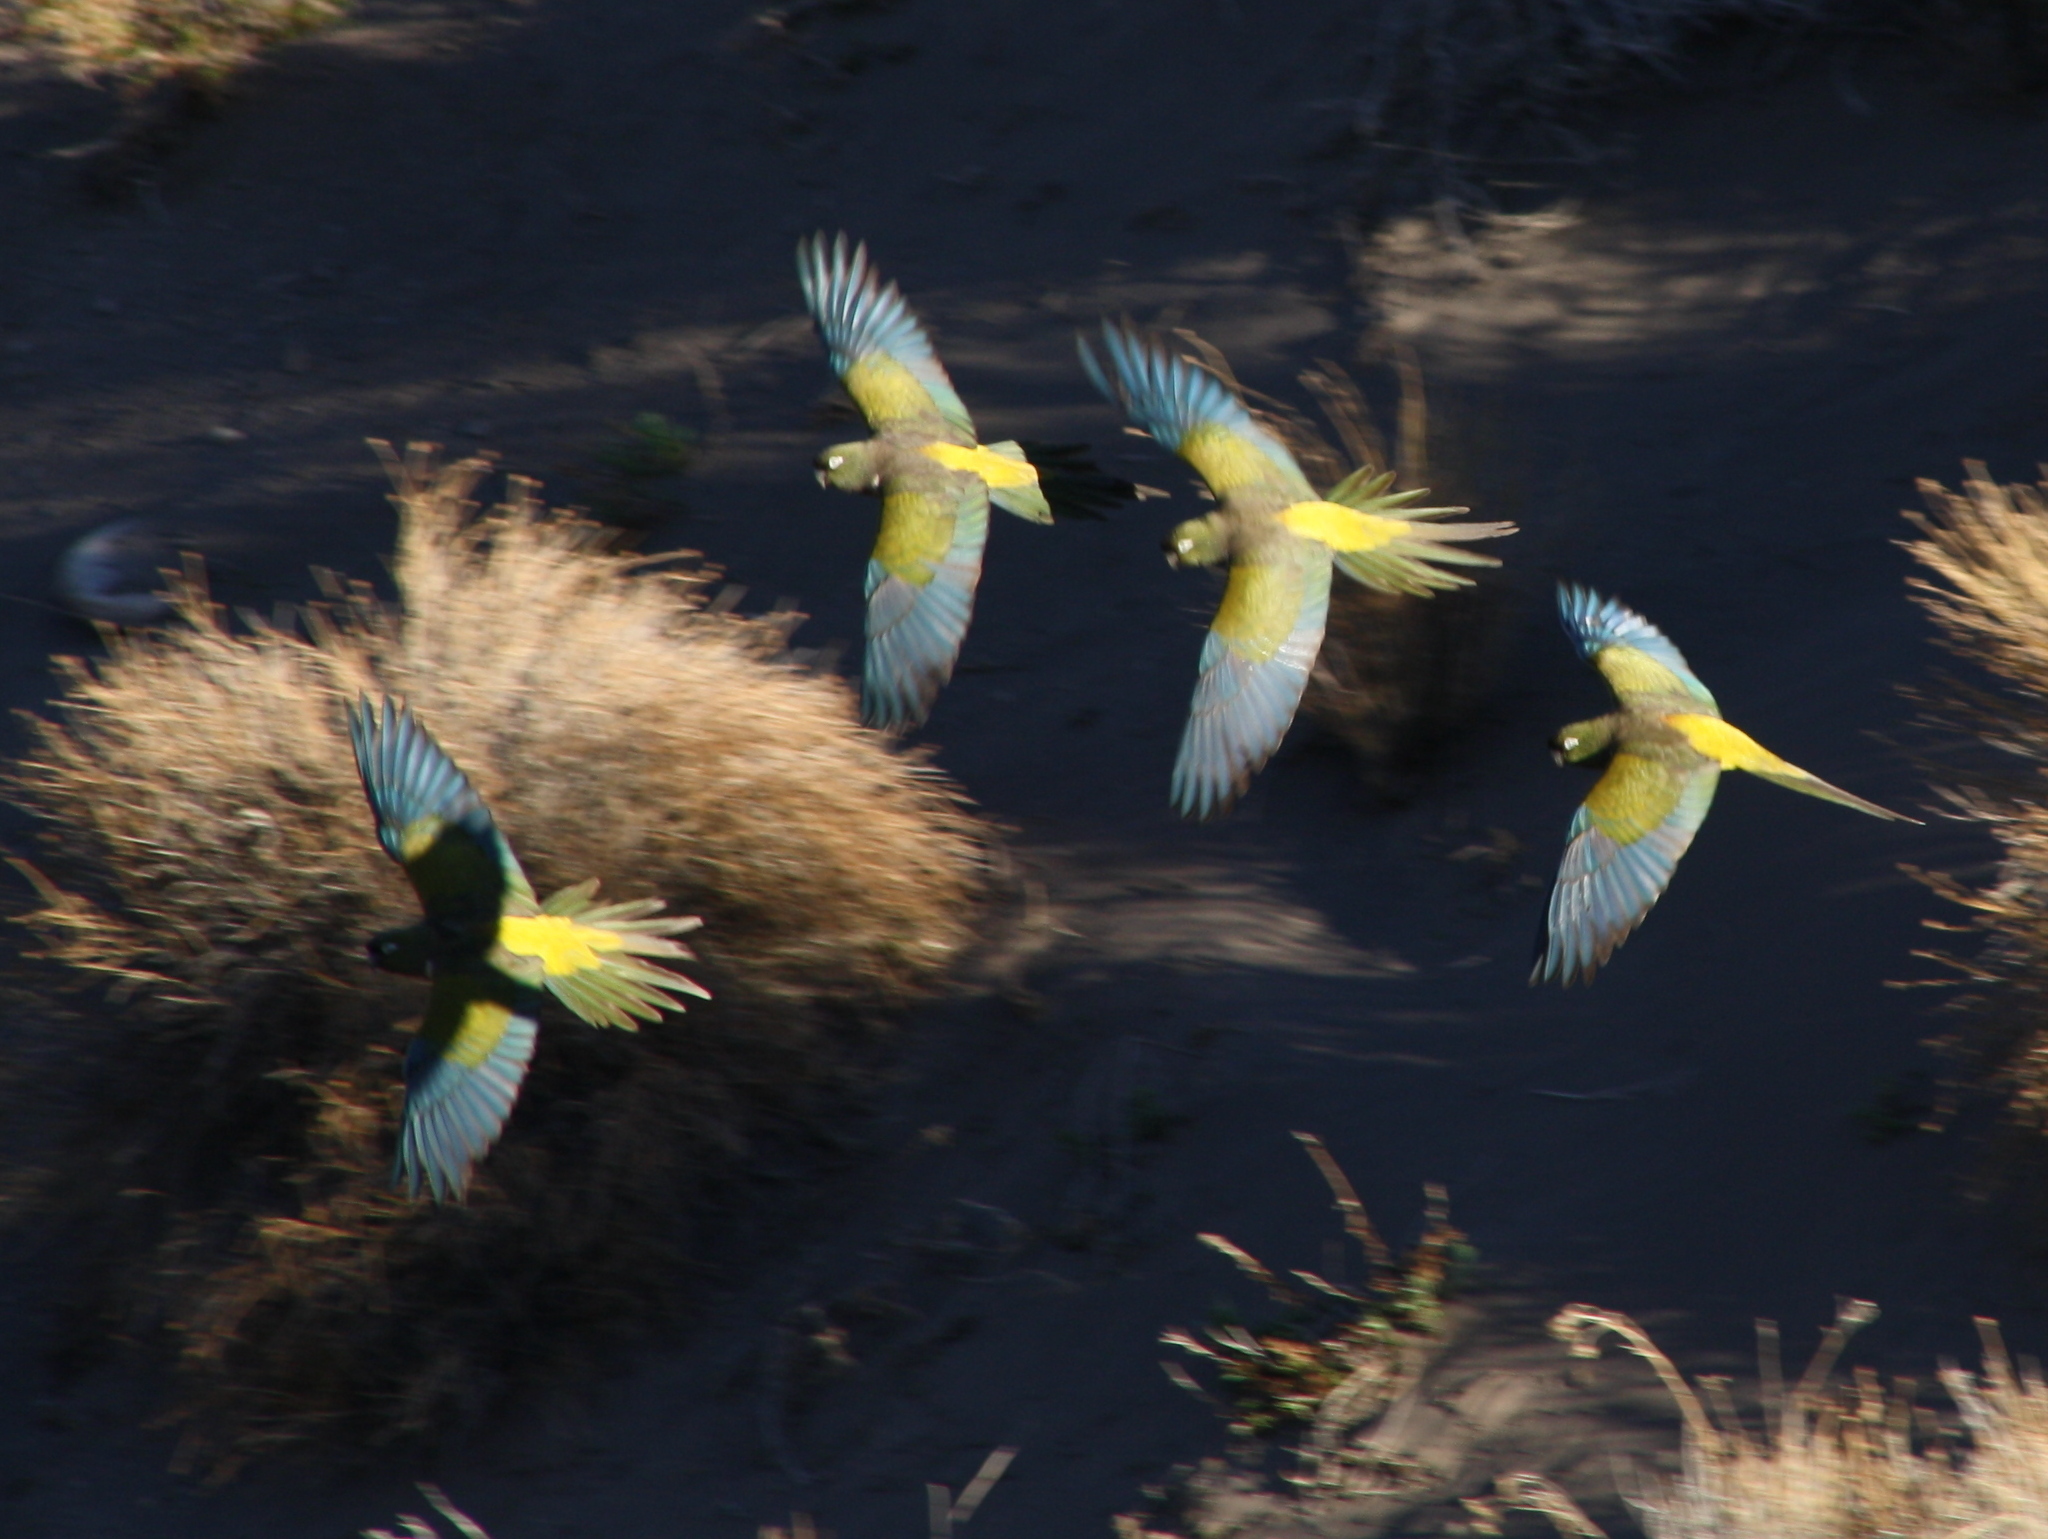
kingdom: Animalia
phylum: Chordata
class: Aves
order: Psittaciformes
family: Psittacidae
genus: Cyanoliseus
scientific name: Cyanoliseus patagonus
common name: Burrowing parrot
